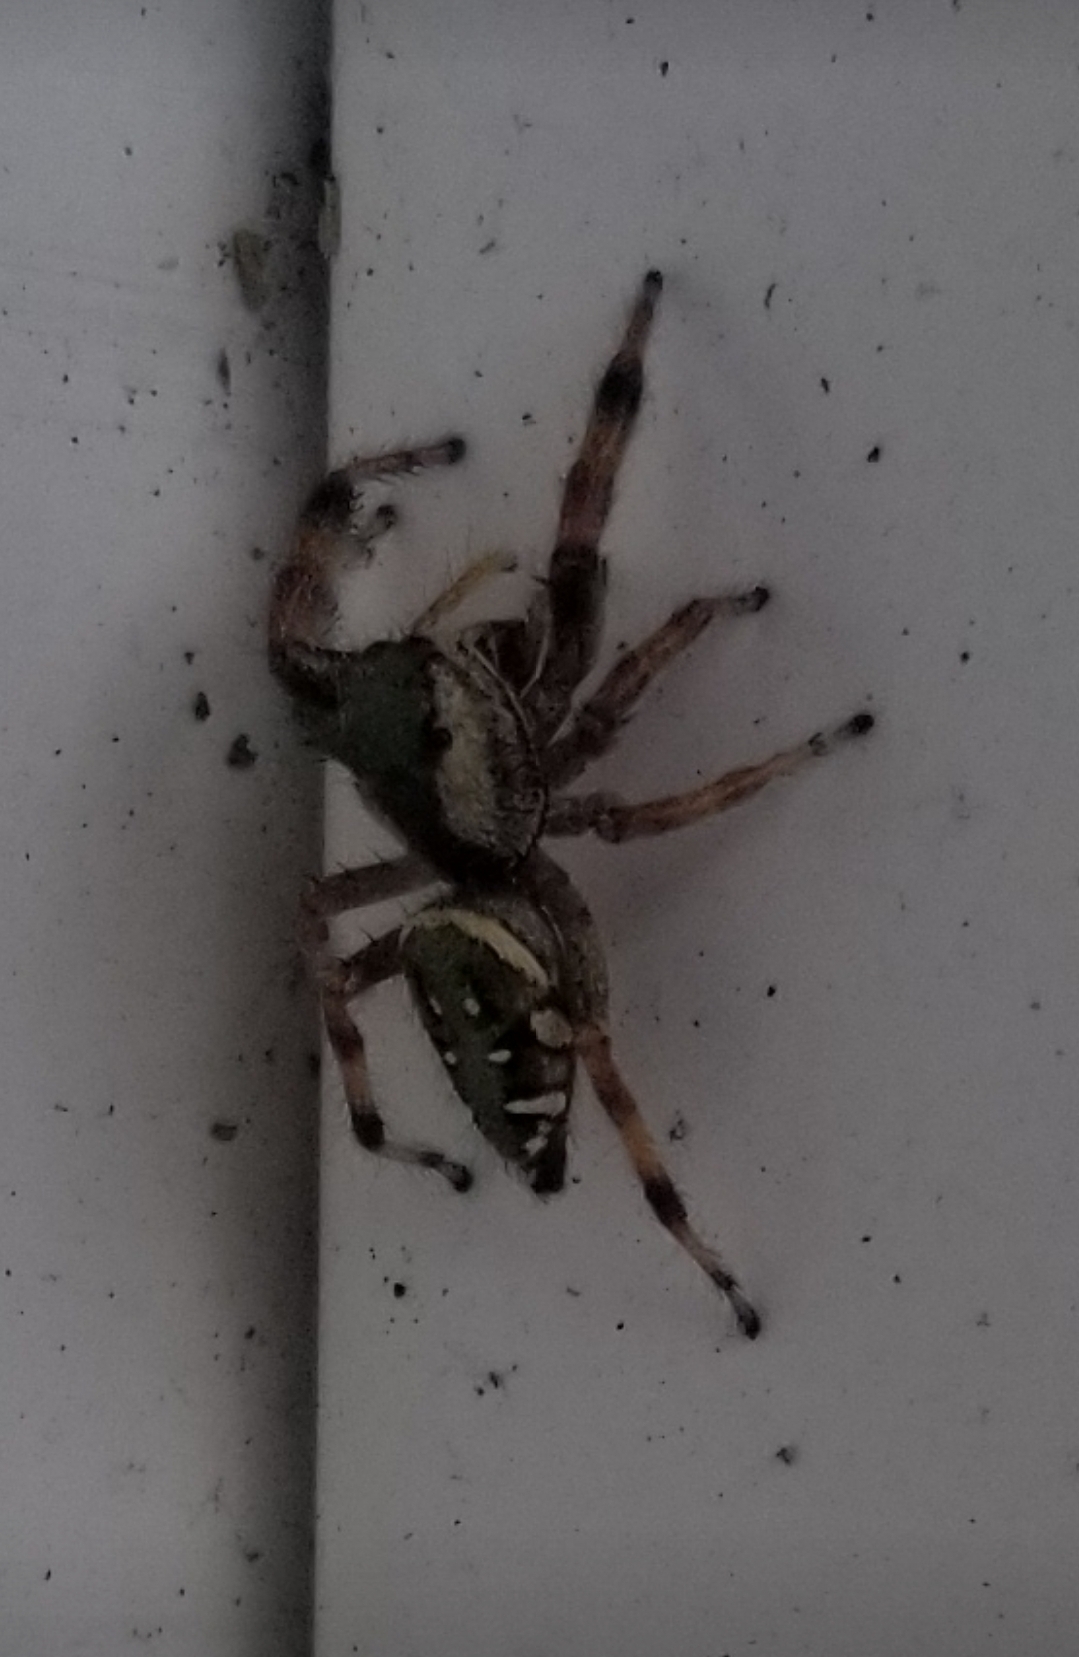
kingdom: Animalia
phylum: Arthropoda
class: Arachnida
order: Araneae
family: Salticidae
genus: Paraphidippus
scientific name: Paraphidippus aurantius
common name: Jumping spiders
